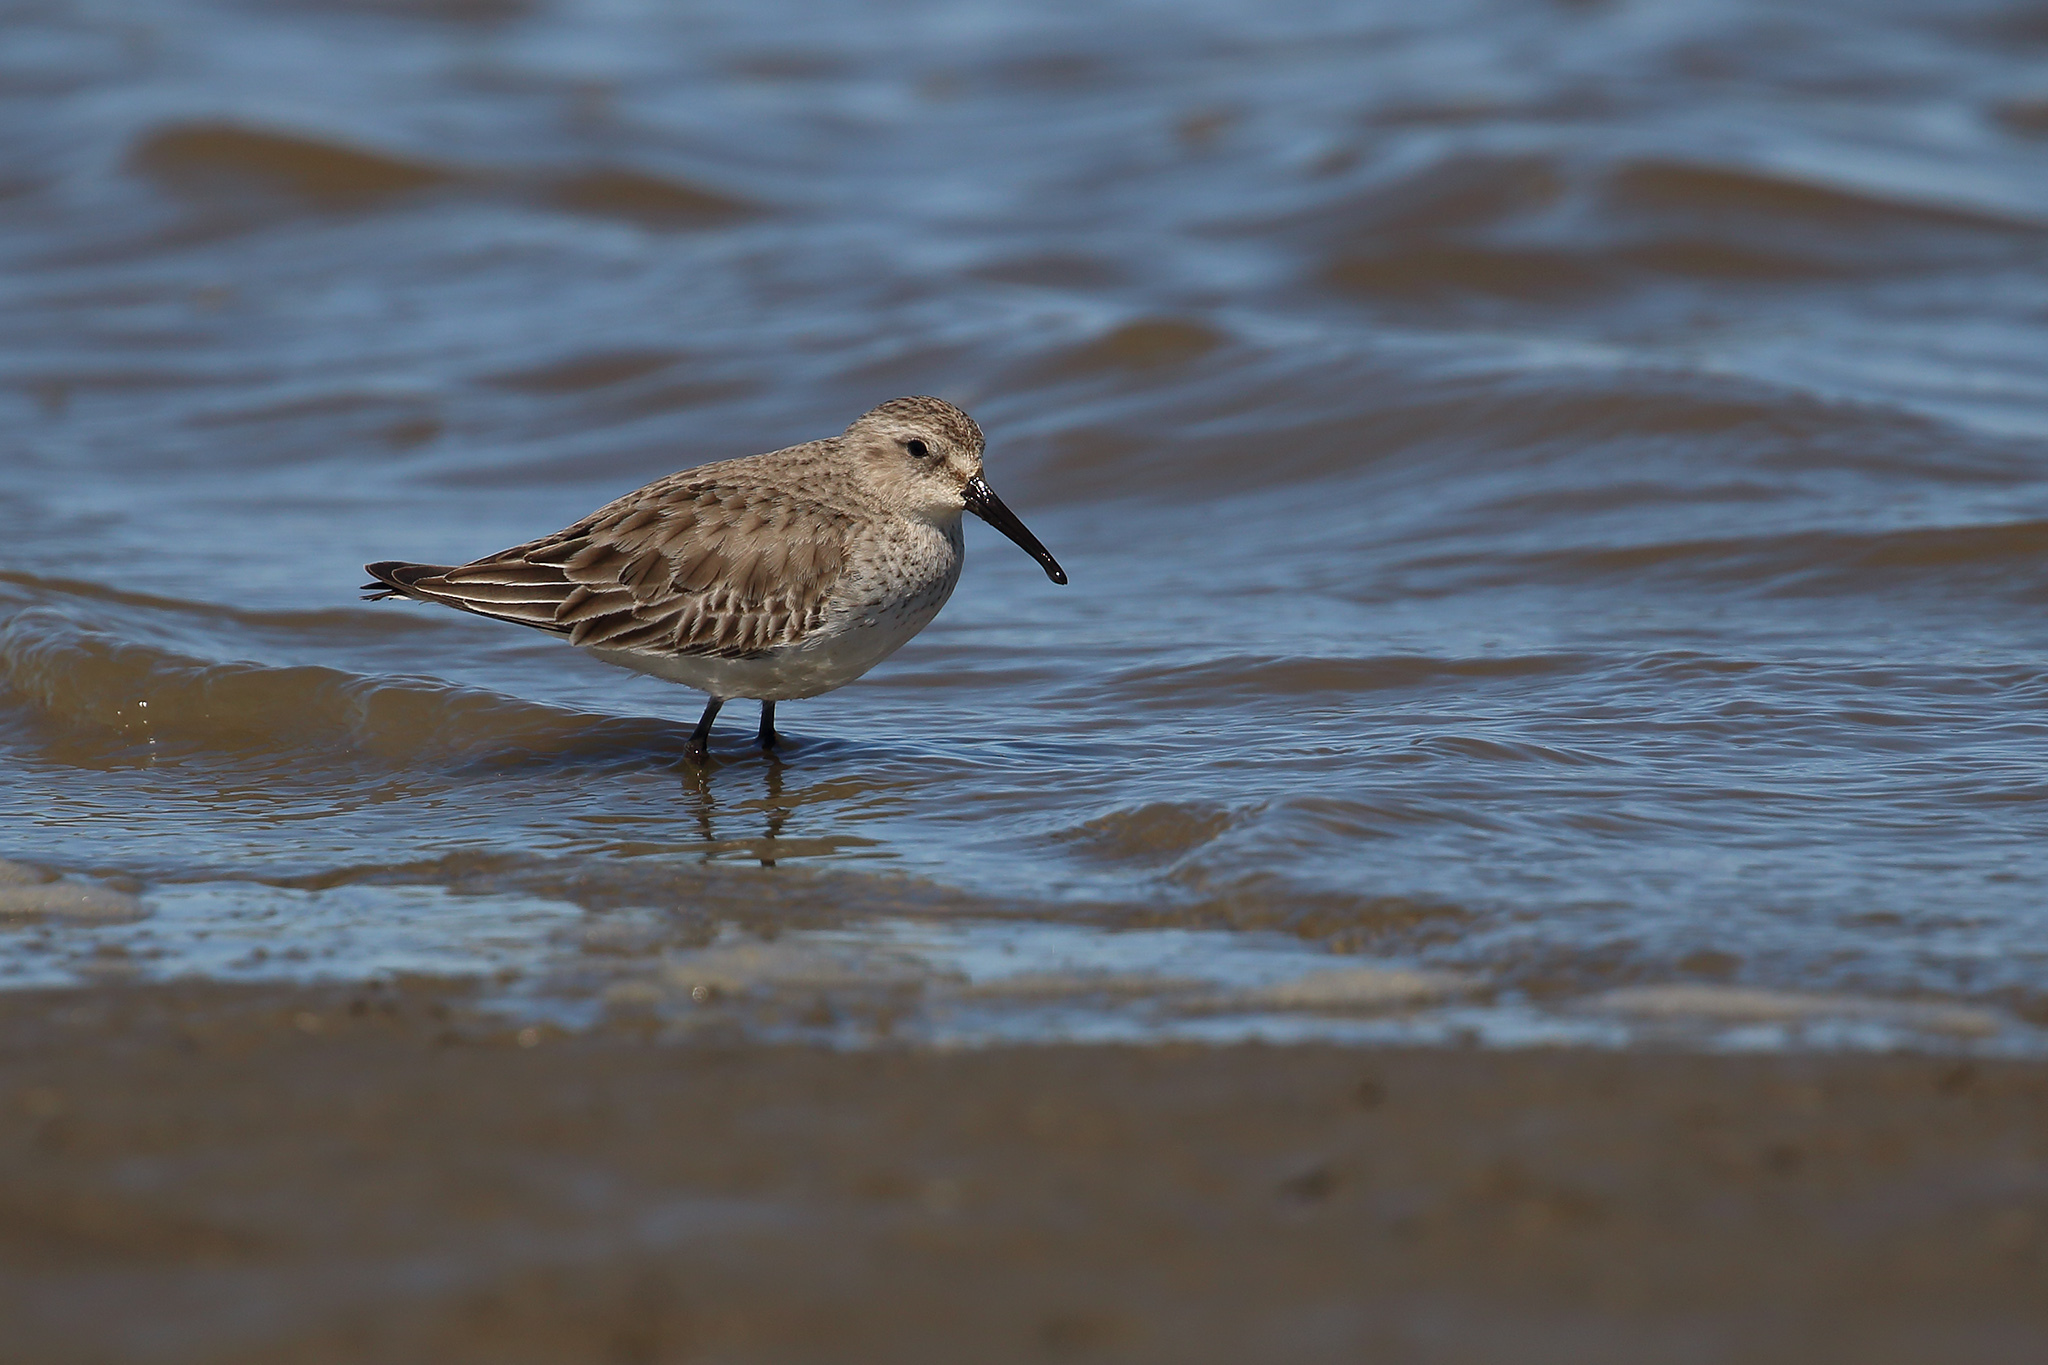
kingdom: Animalia
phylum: Chordata
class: Aves
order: Charadriiformes
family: Scolopacidae
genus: Calidris
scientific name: Calidris alpina
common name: Dunlin
